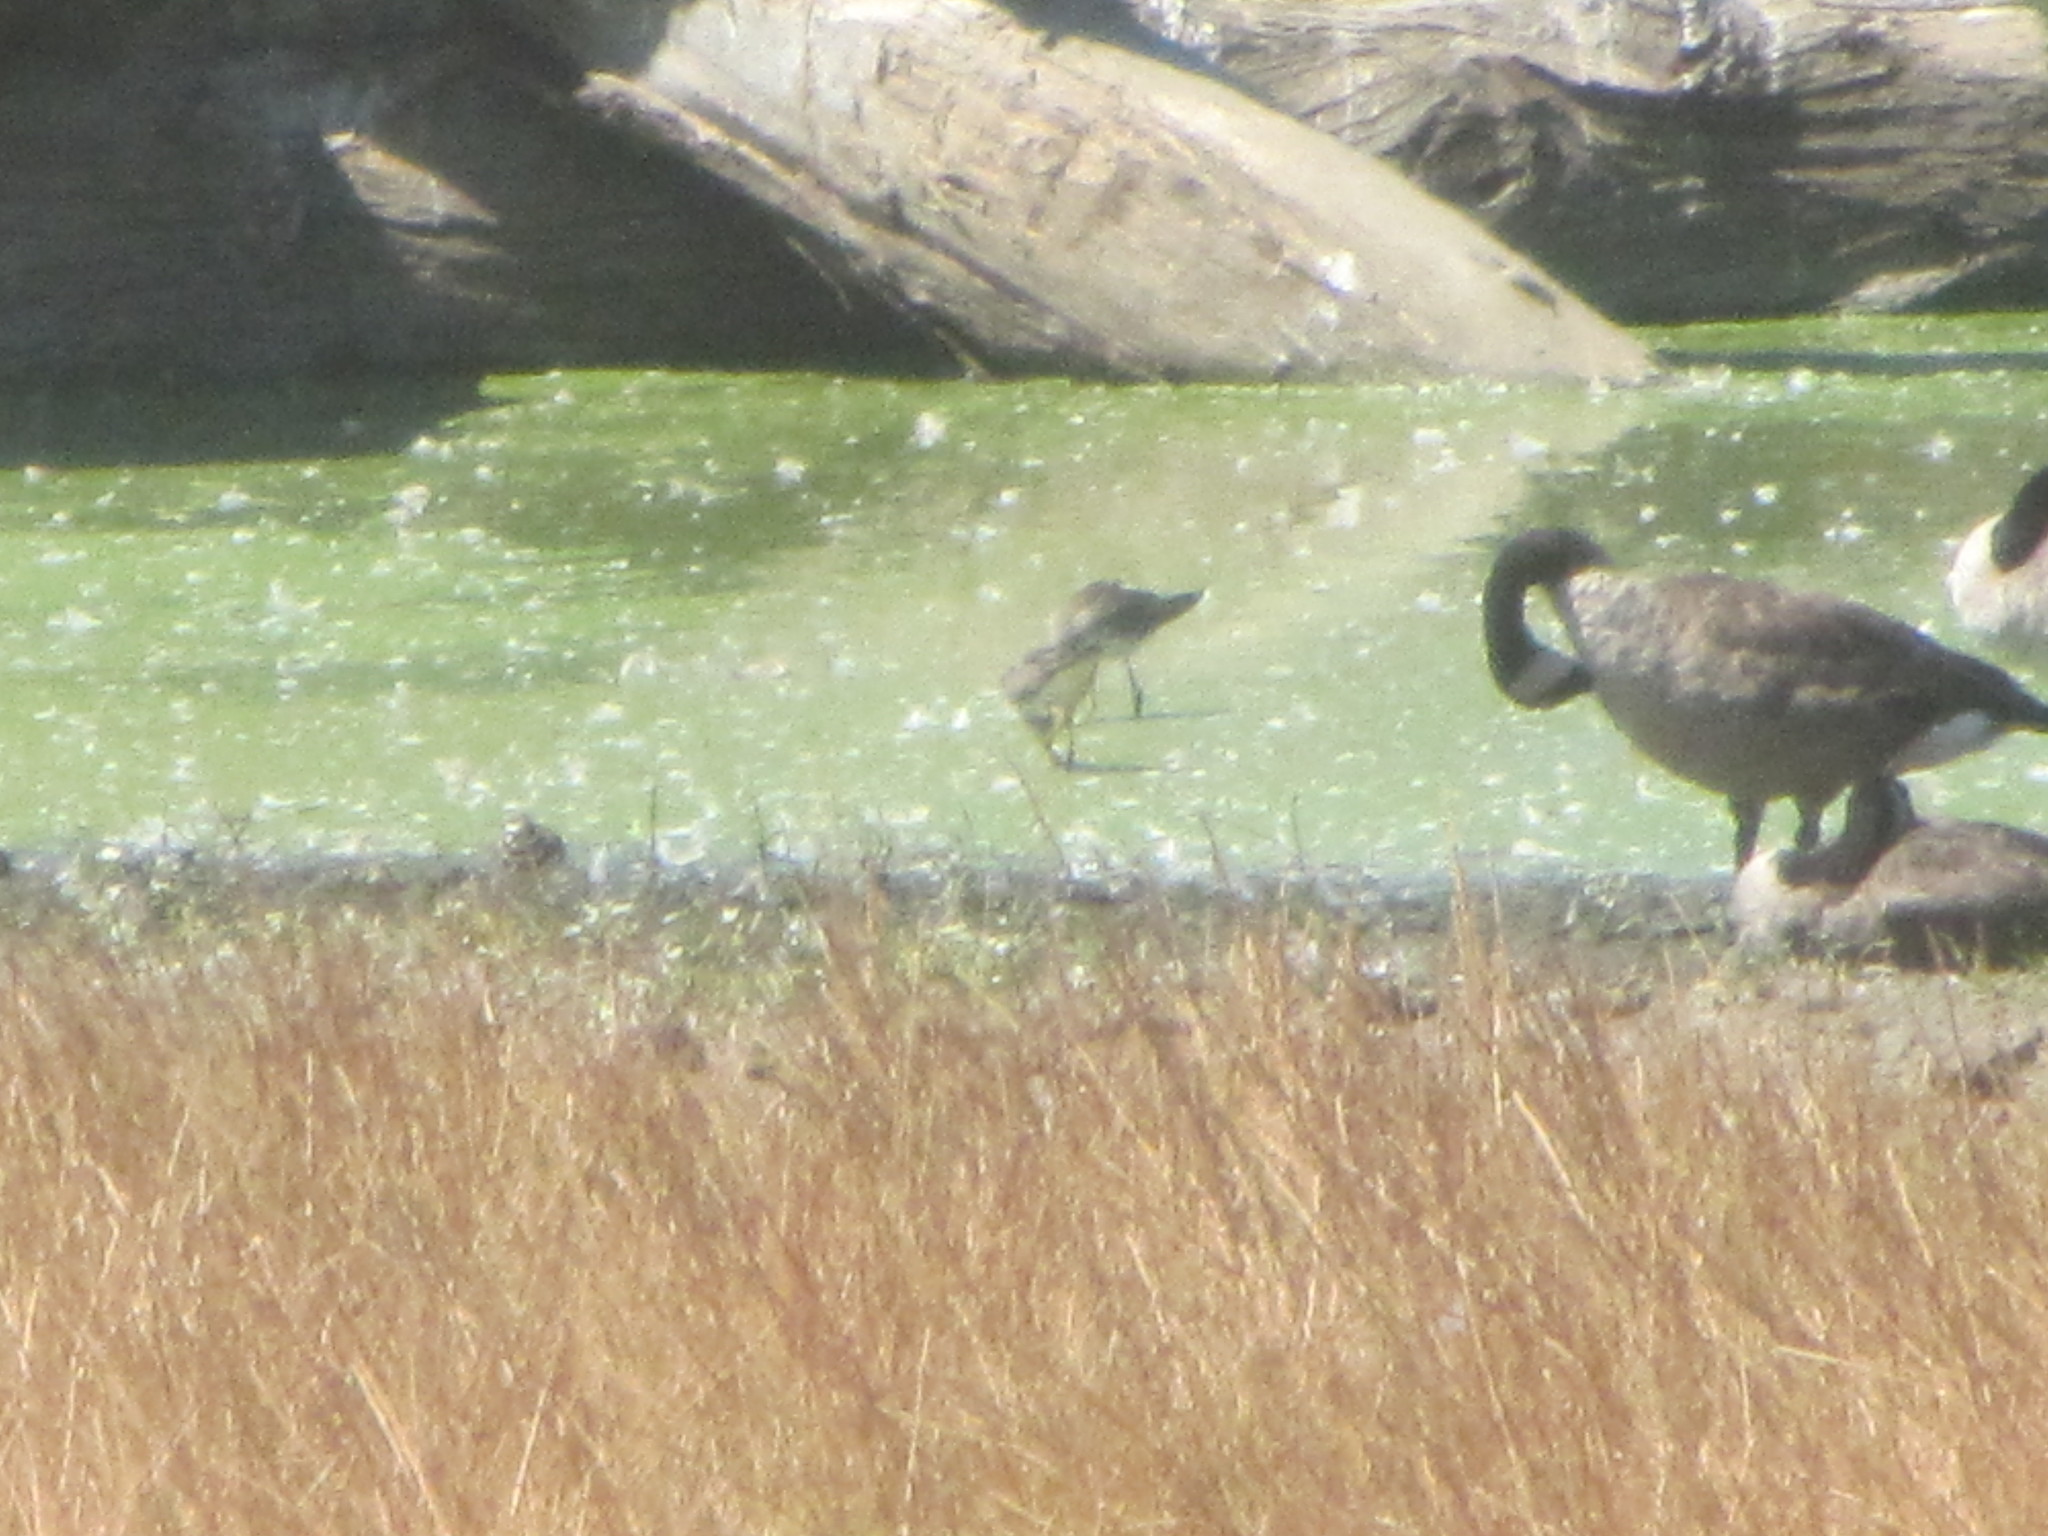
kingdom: Animalia
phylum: Chordata
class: Aves
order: Charadriiformes
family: Scolopacidae
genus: Tringa
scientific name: Tringa melanoleuca
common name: Greater yellowlegs
